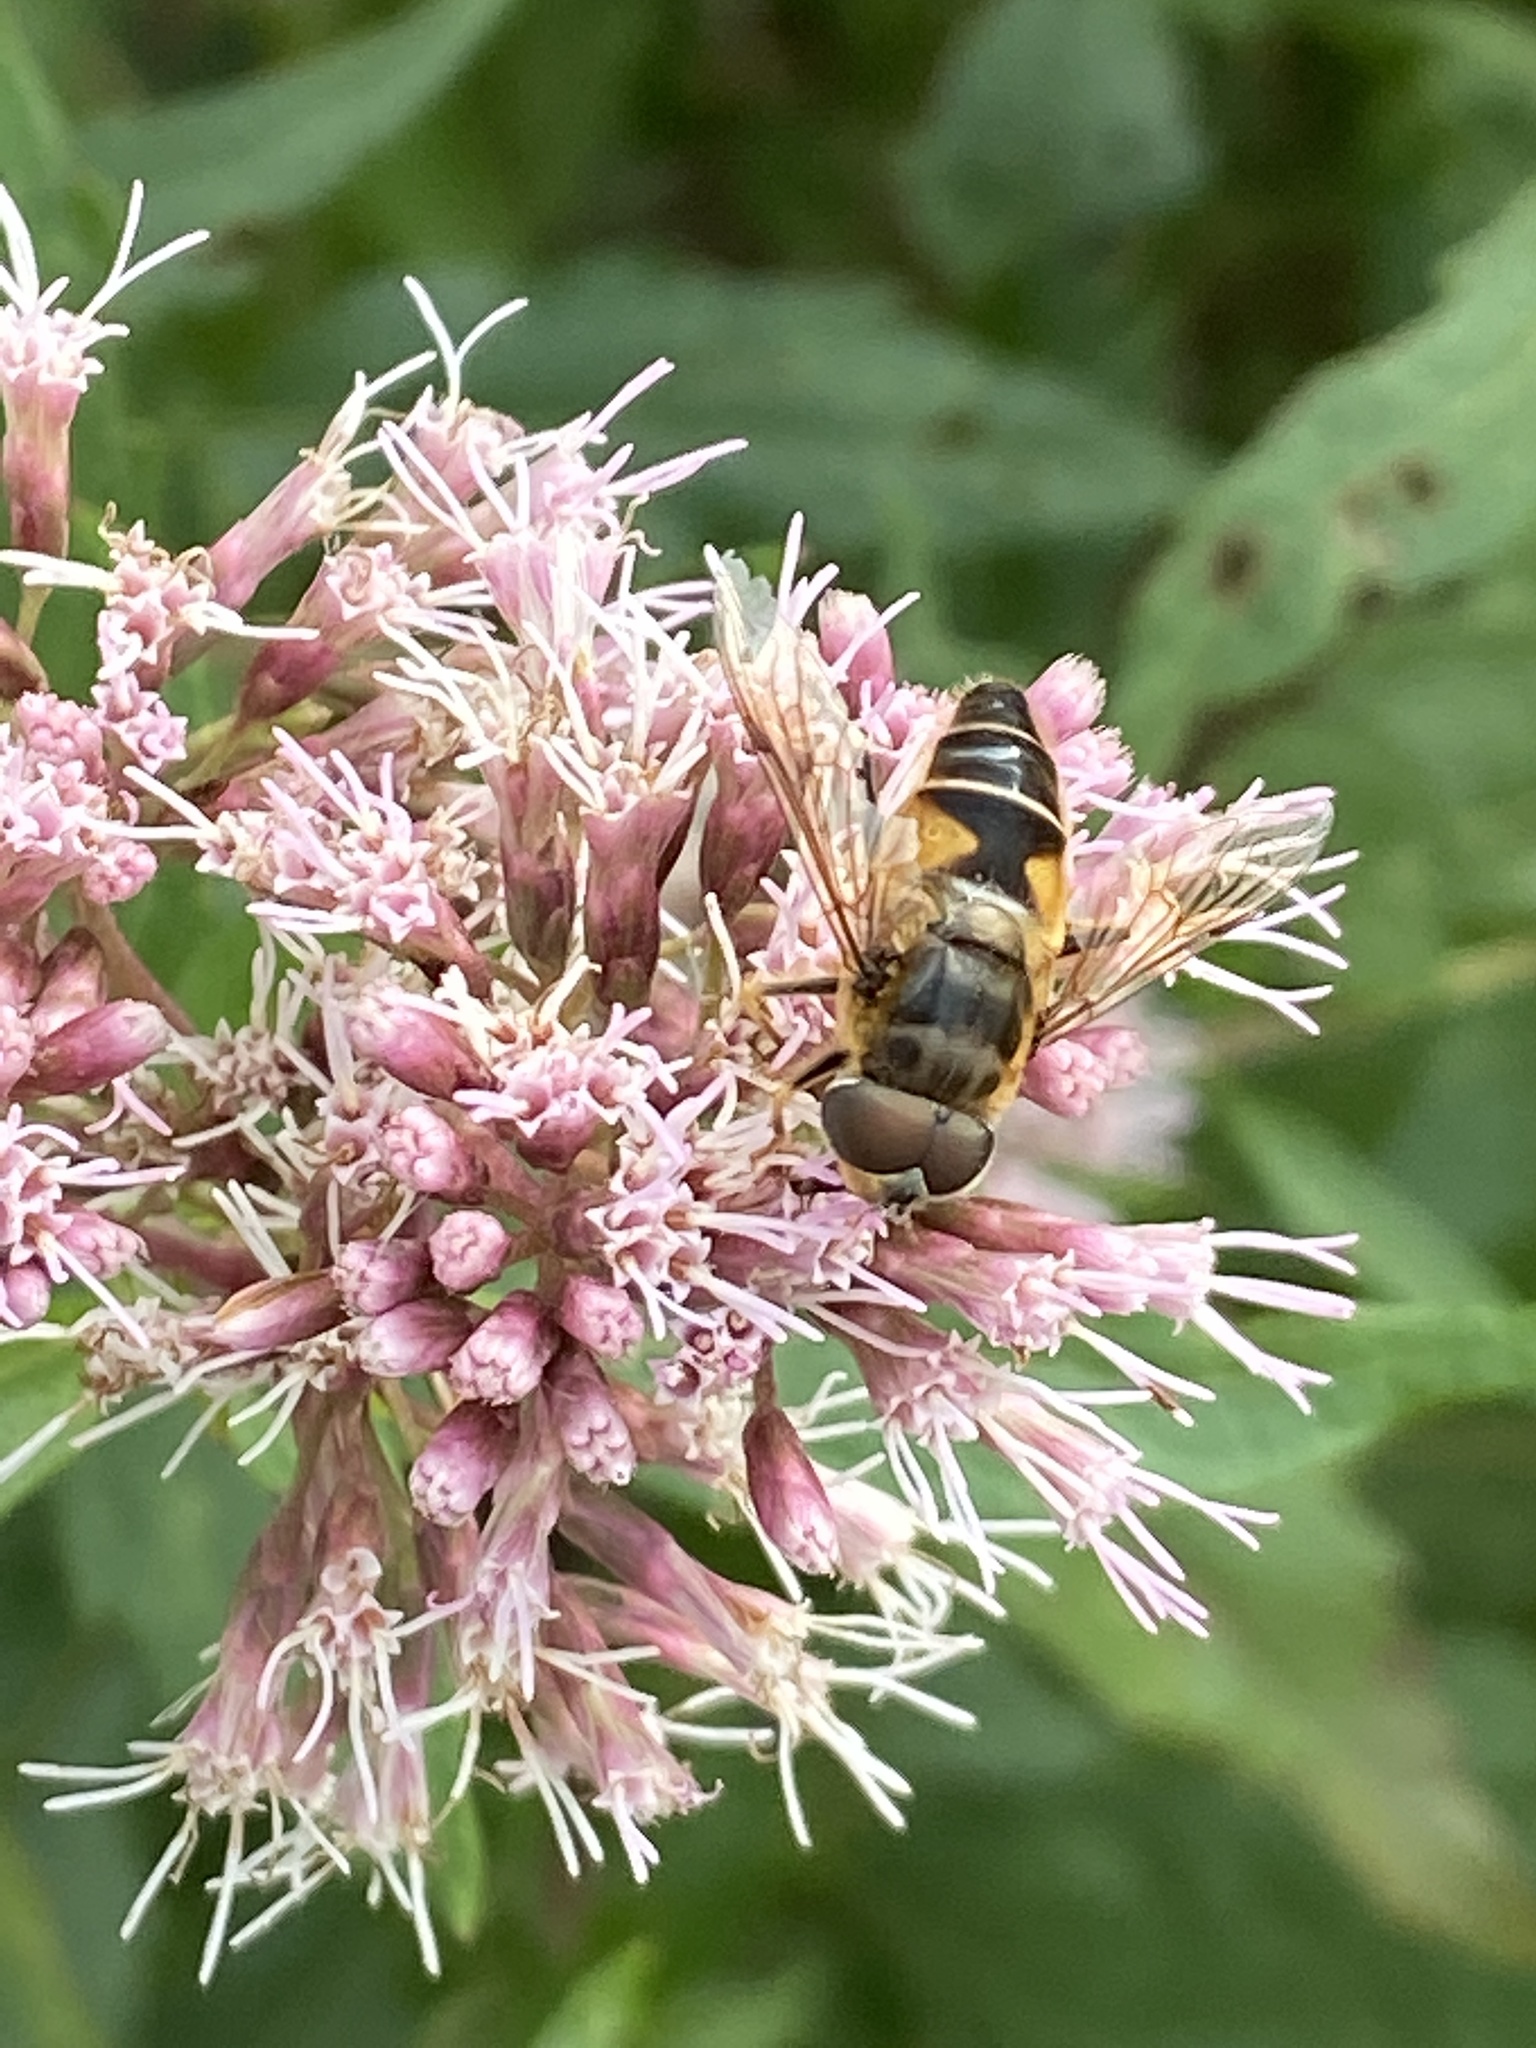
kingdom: Animalia
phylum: Arthropoda
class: Insecta
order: Diptera
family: Syrphidae
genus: Eristalis
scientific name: Eristalis pertinax
